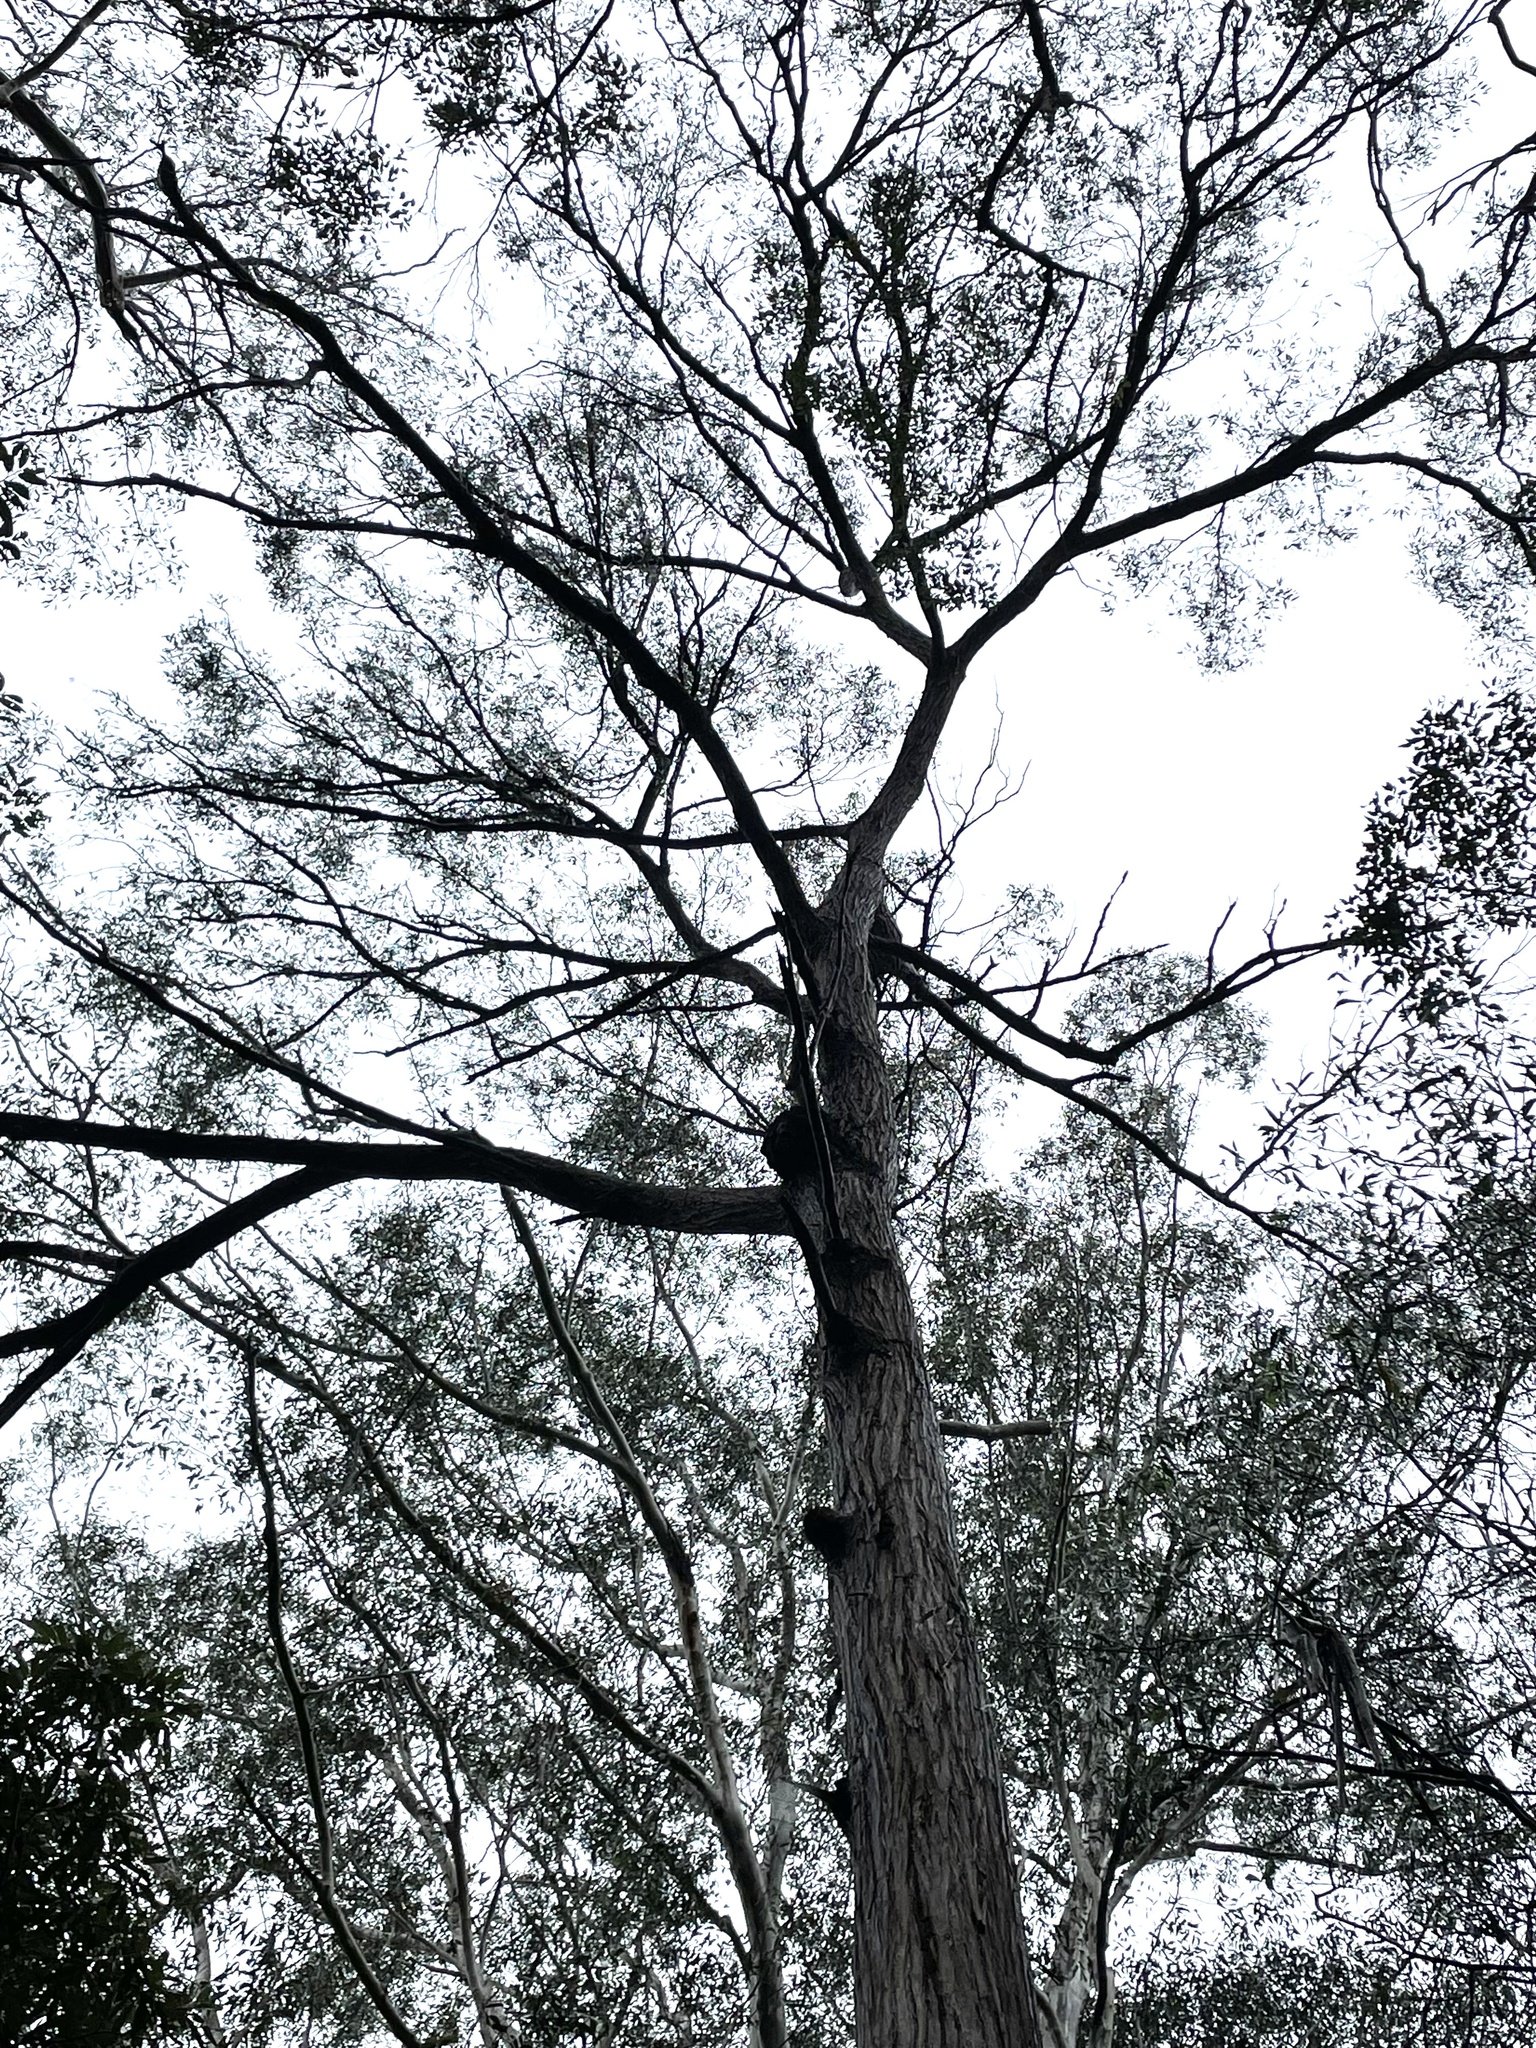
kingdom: Plantae
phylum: Tracheophyta
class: Magnoliopsida
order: Myrtales
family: Myrtaceae
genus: Eucalyptus
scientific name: Eucalyptus pilularis
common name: Blackbutt
